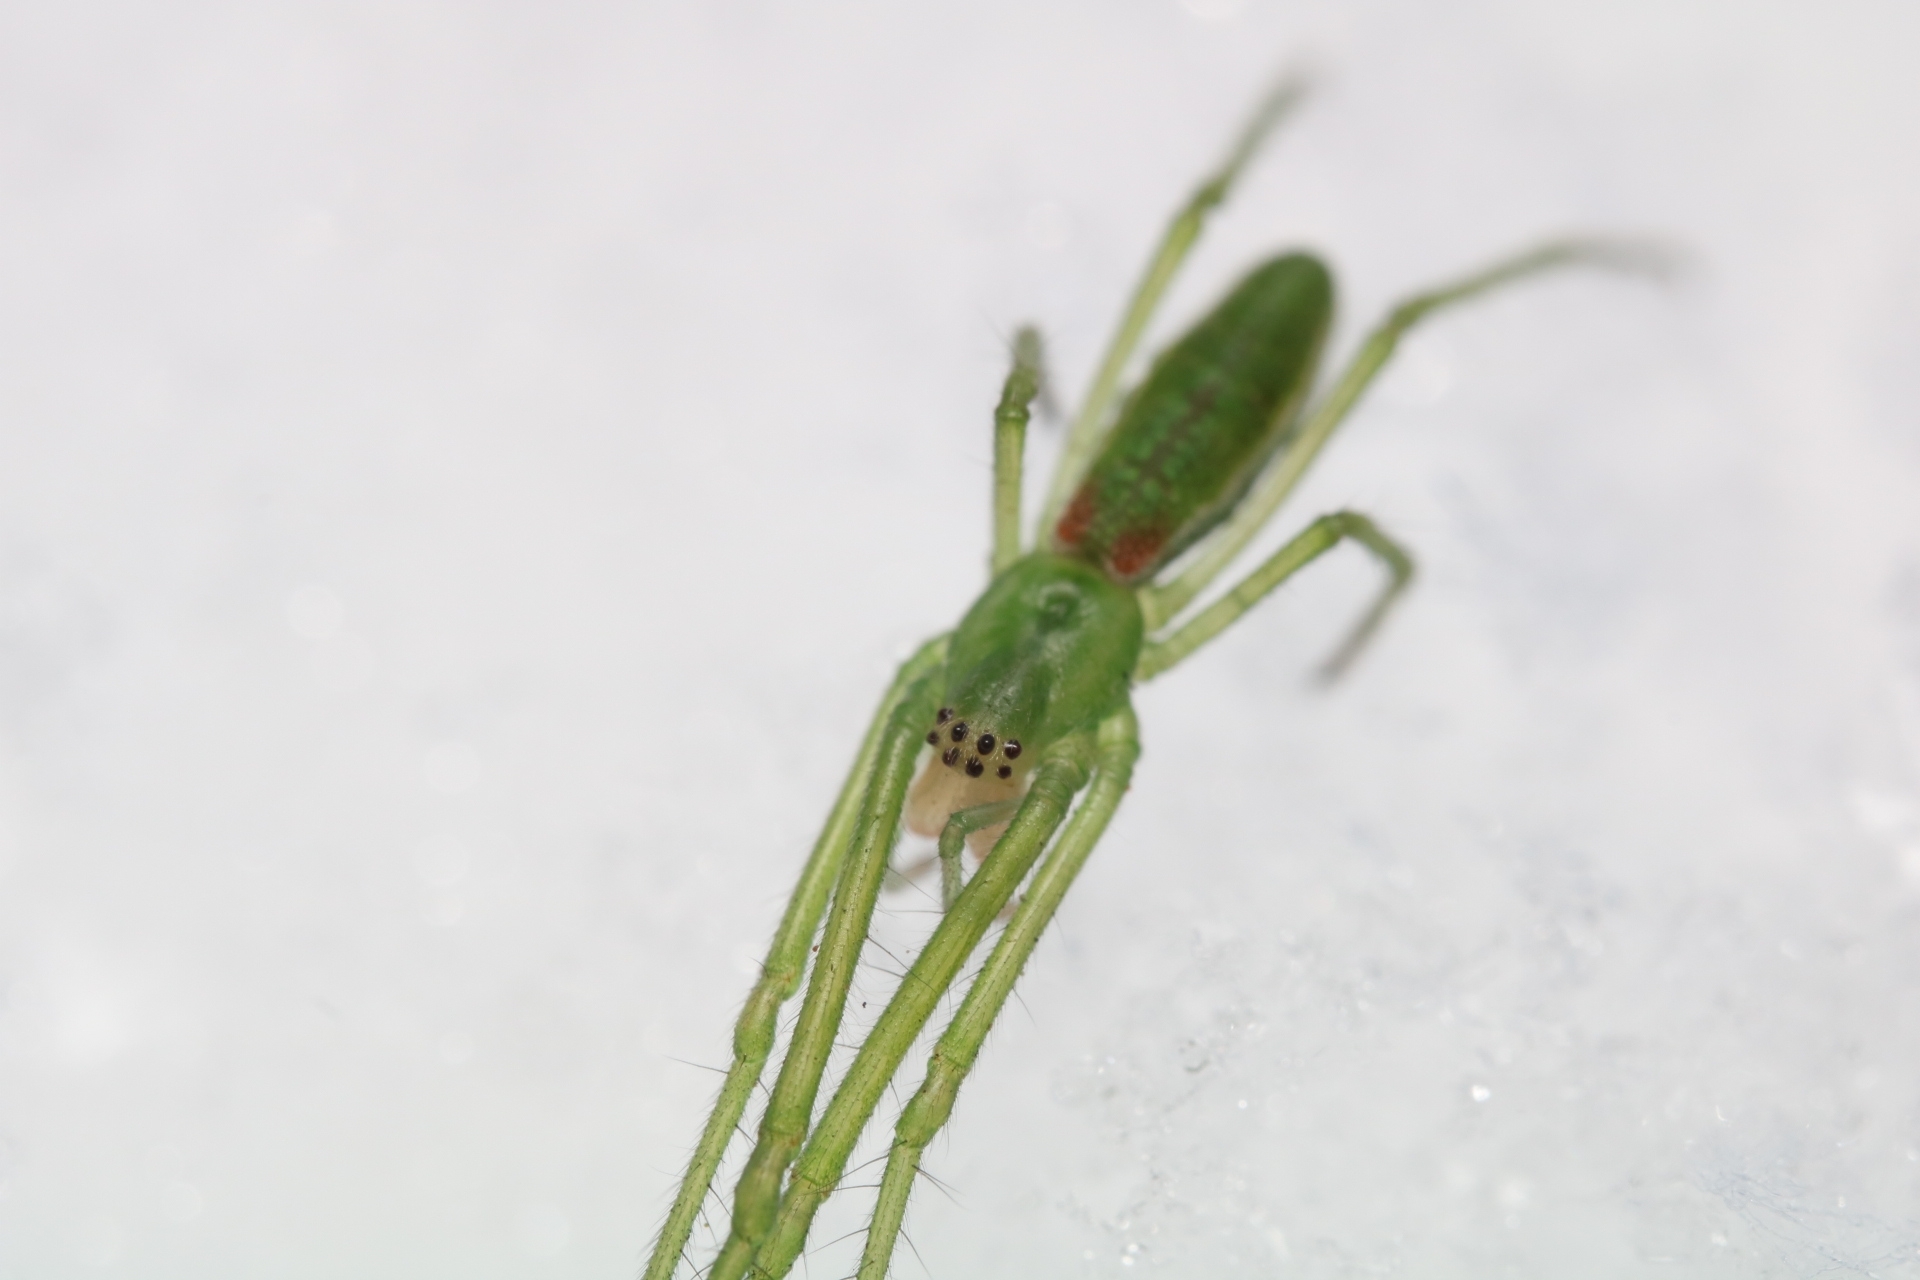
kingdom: Animalia
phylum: Arthropoda
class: Arachnida
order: Araneae
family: Tetragnathidae
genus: Tetragnatha
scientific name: Tetragnatha viridis
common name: Green long-jawed spider
